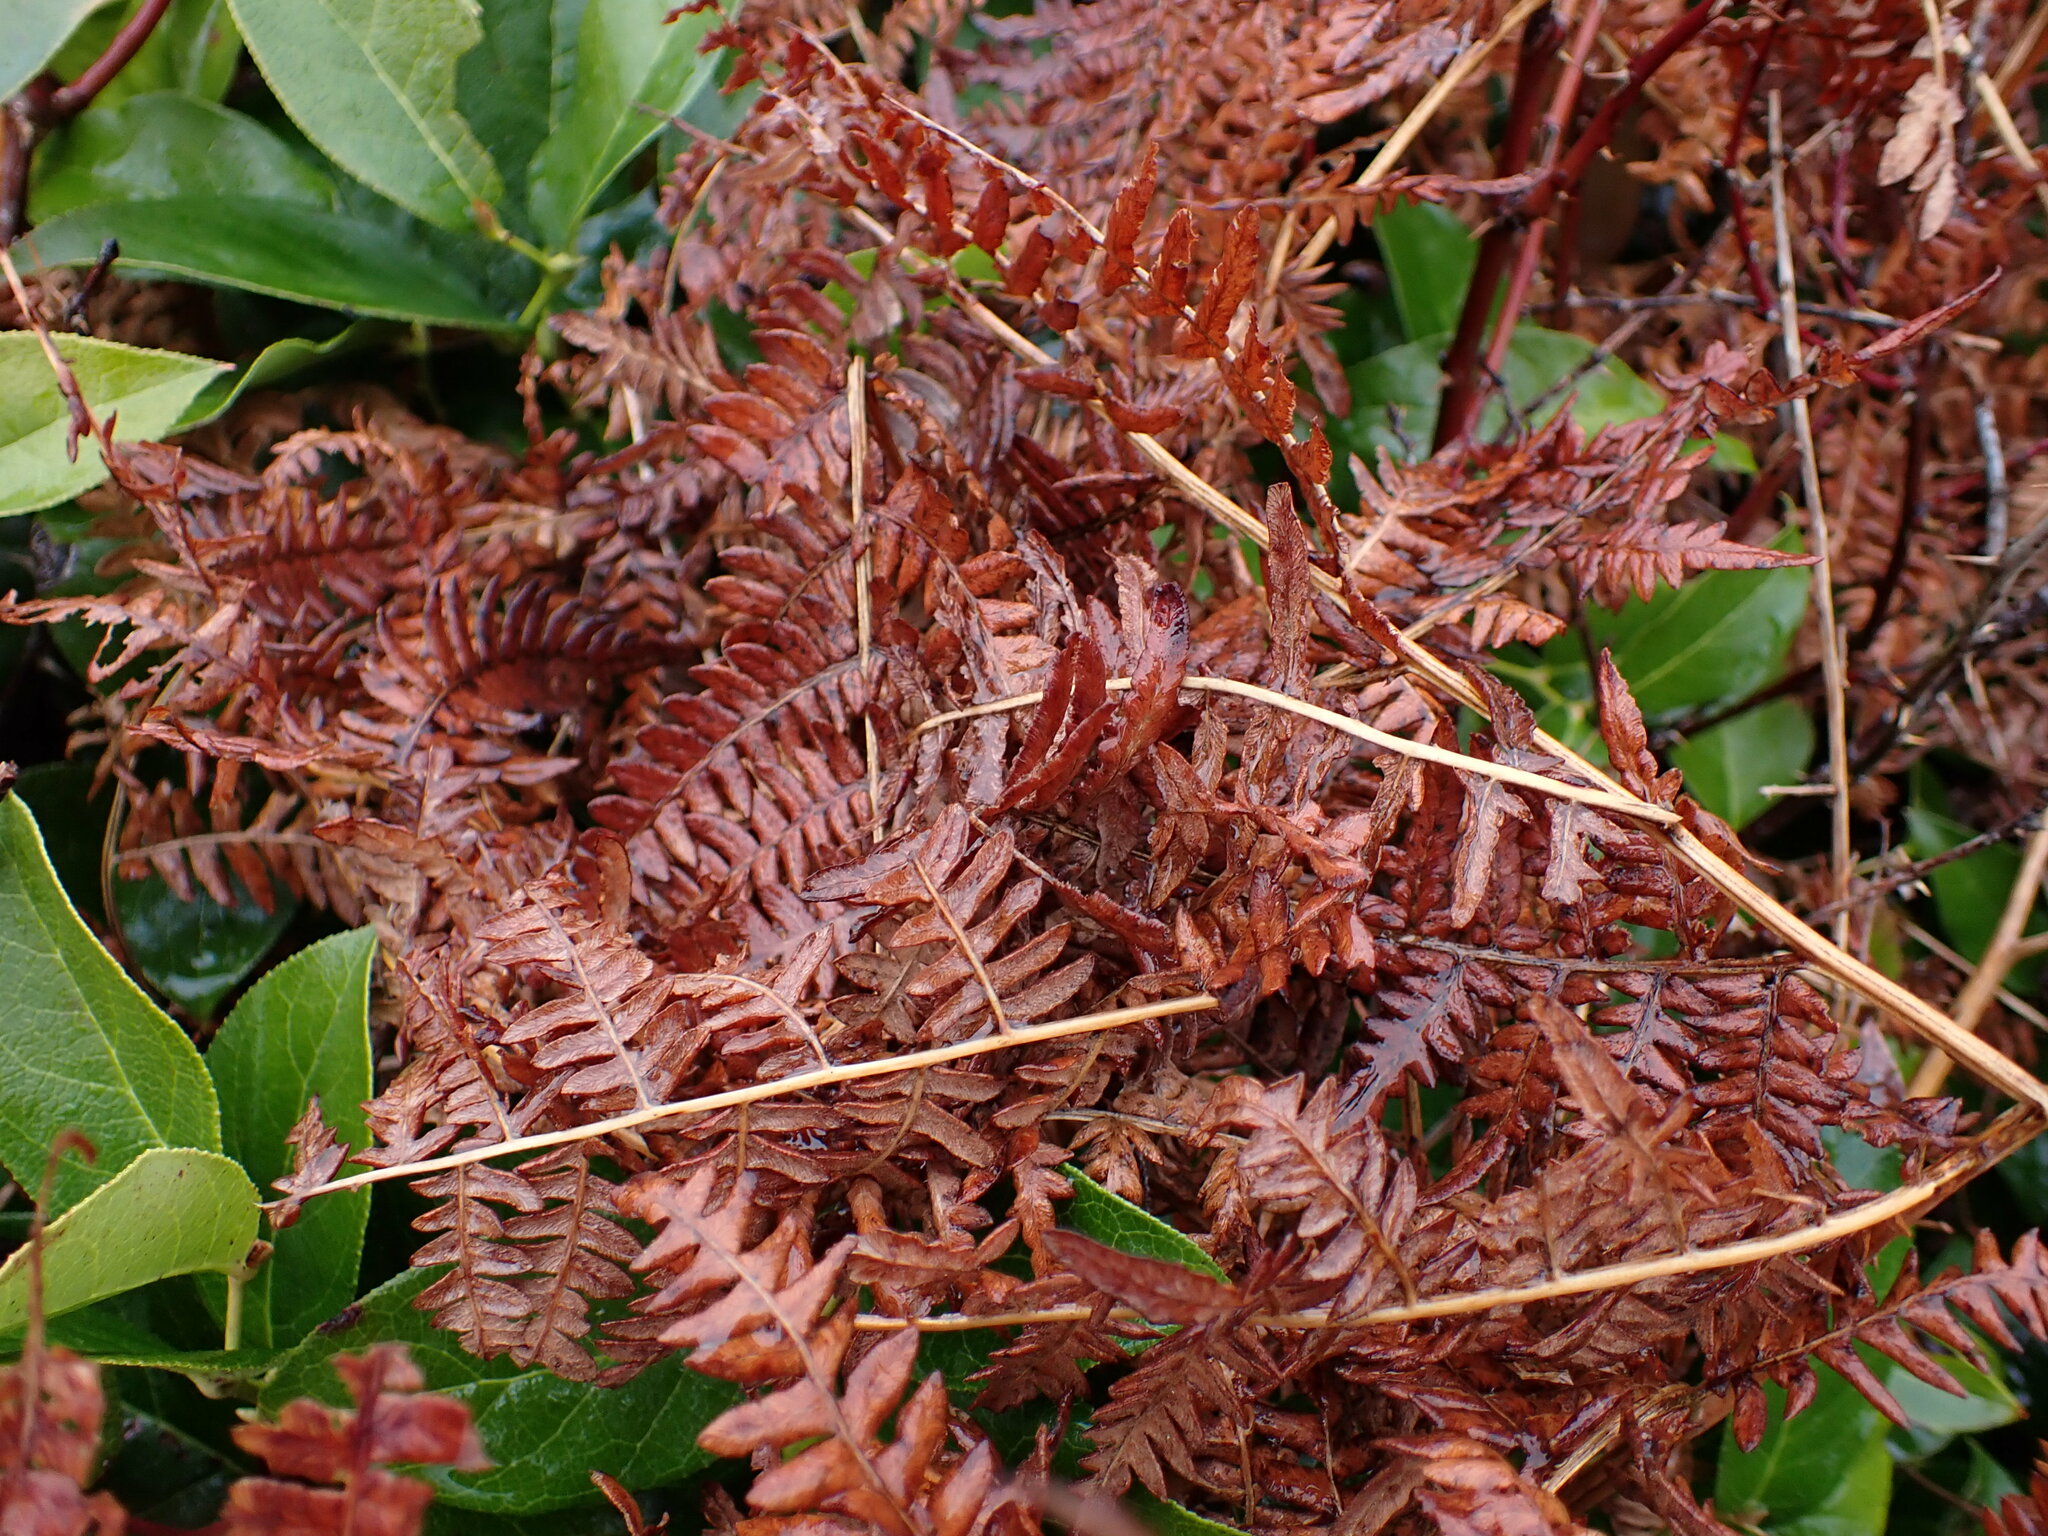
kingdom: Plantae
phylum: Tracheophyta
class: Polypodiopsida
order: Polypodiales
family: Dennstaedtiaceae
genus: Pteridium
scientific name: Pteridium aquilinum
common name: Bracken
